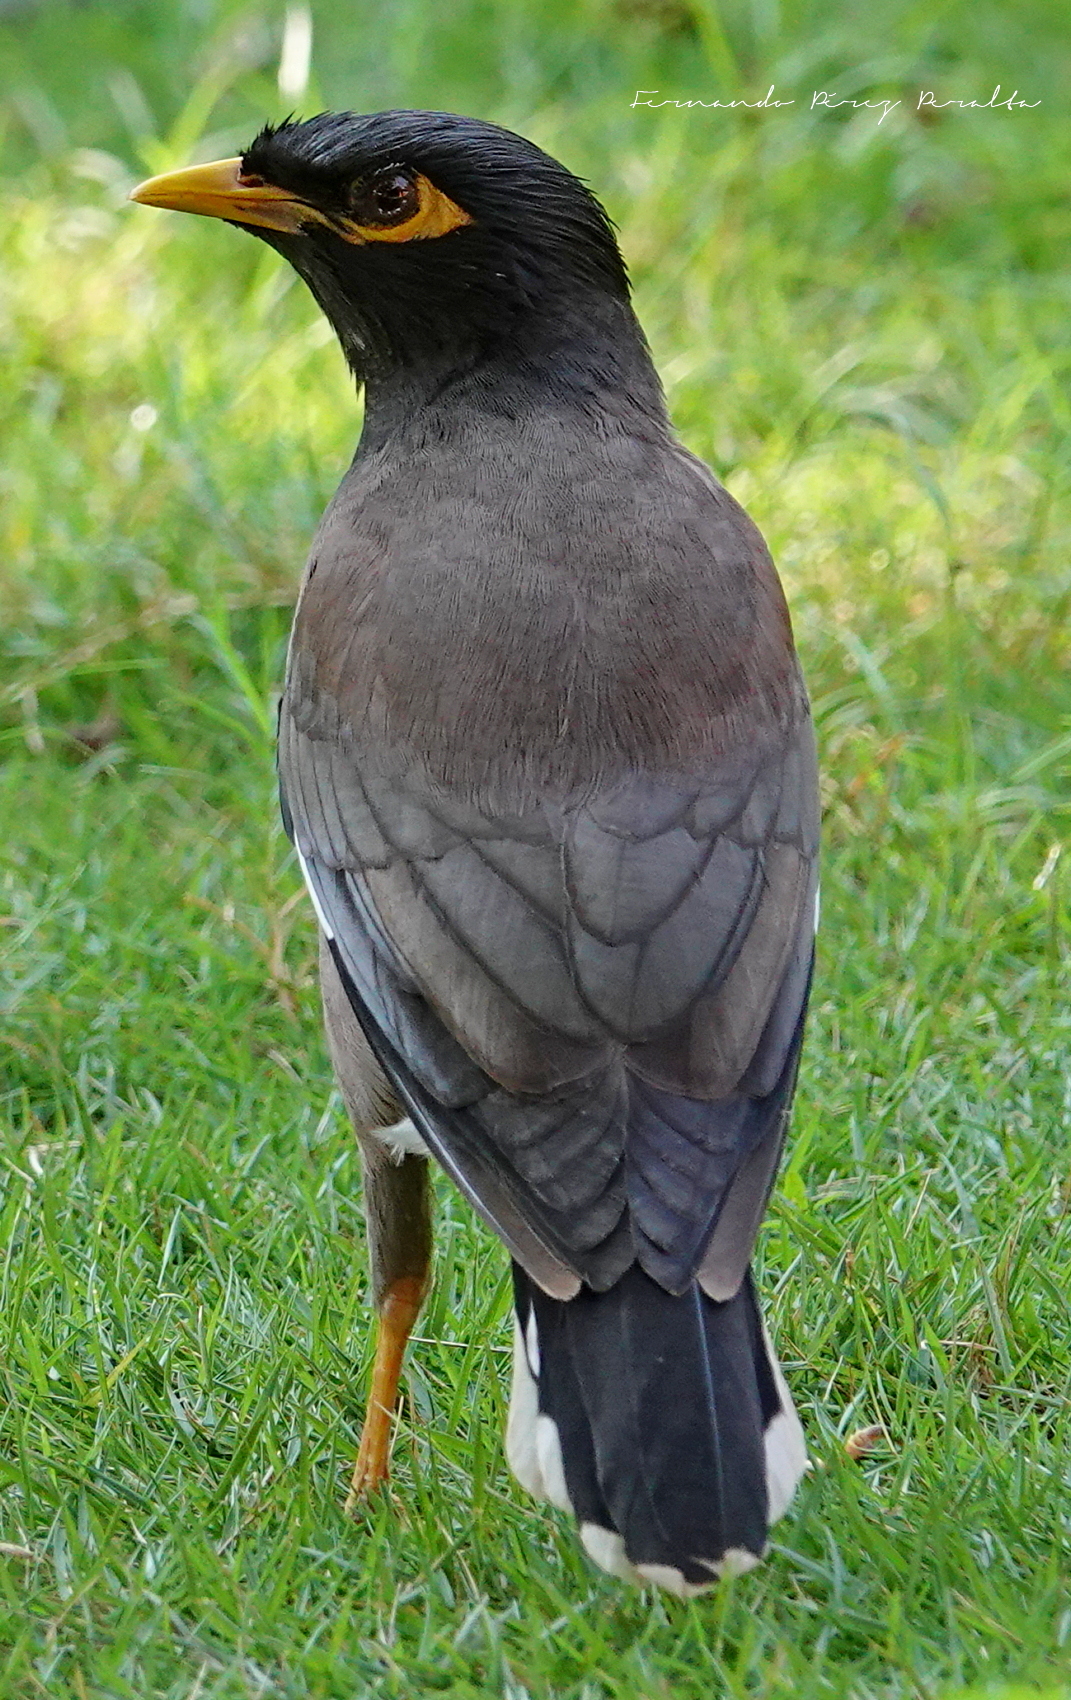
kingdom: Animalia
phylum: Chordata
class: Aves
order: Passeriformes
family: Sturnidae
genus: Acridotheres
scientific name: Acridotheres tristis
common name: Common myna
